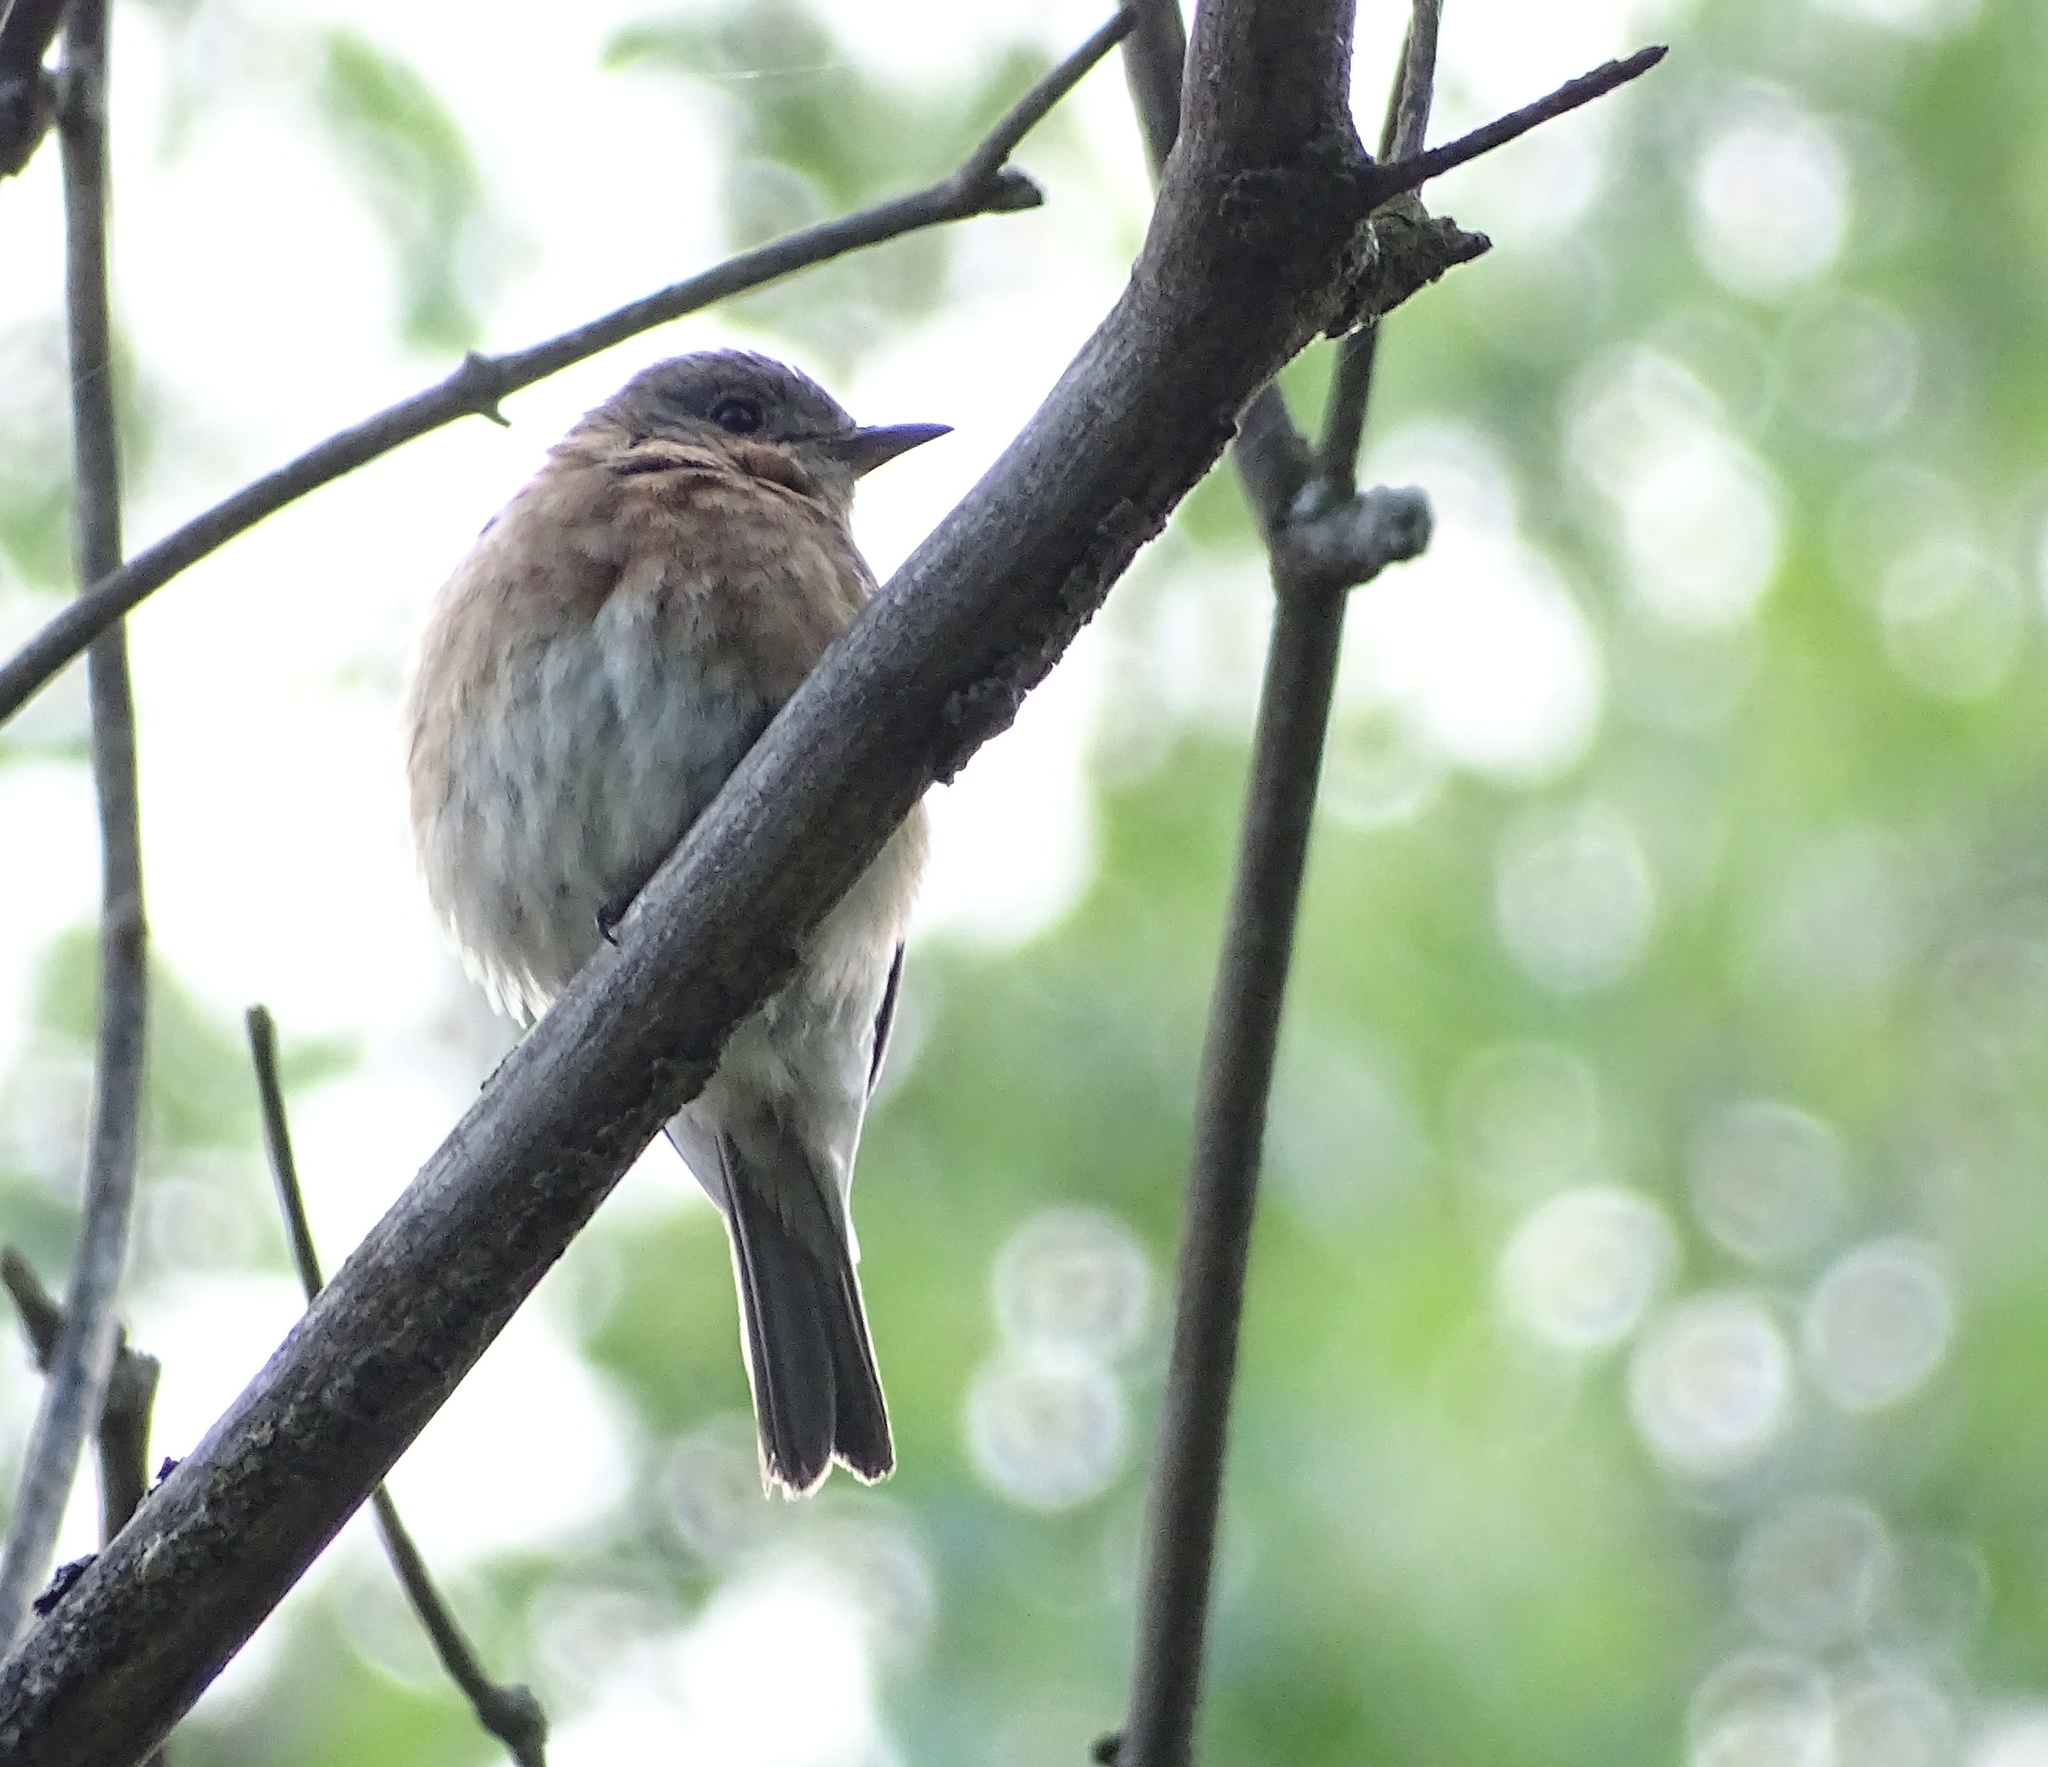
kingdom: Animalia
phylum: Chordata
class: Aves
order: Passeriformes
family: Turdidae
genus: Sialia
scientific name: Sialia sialis
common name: Eastern bluebird
